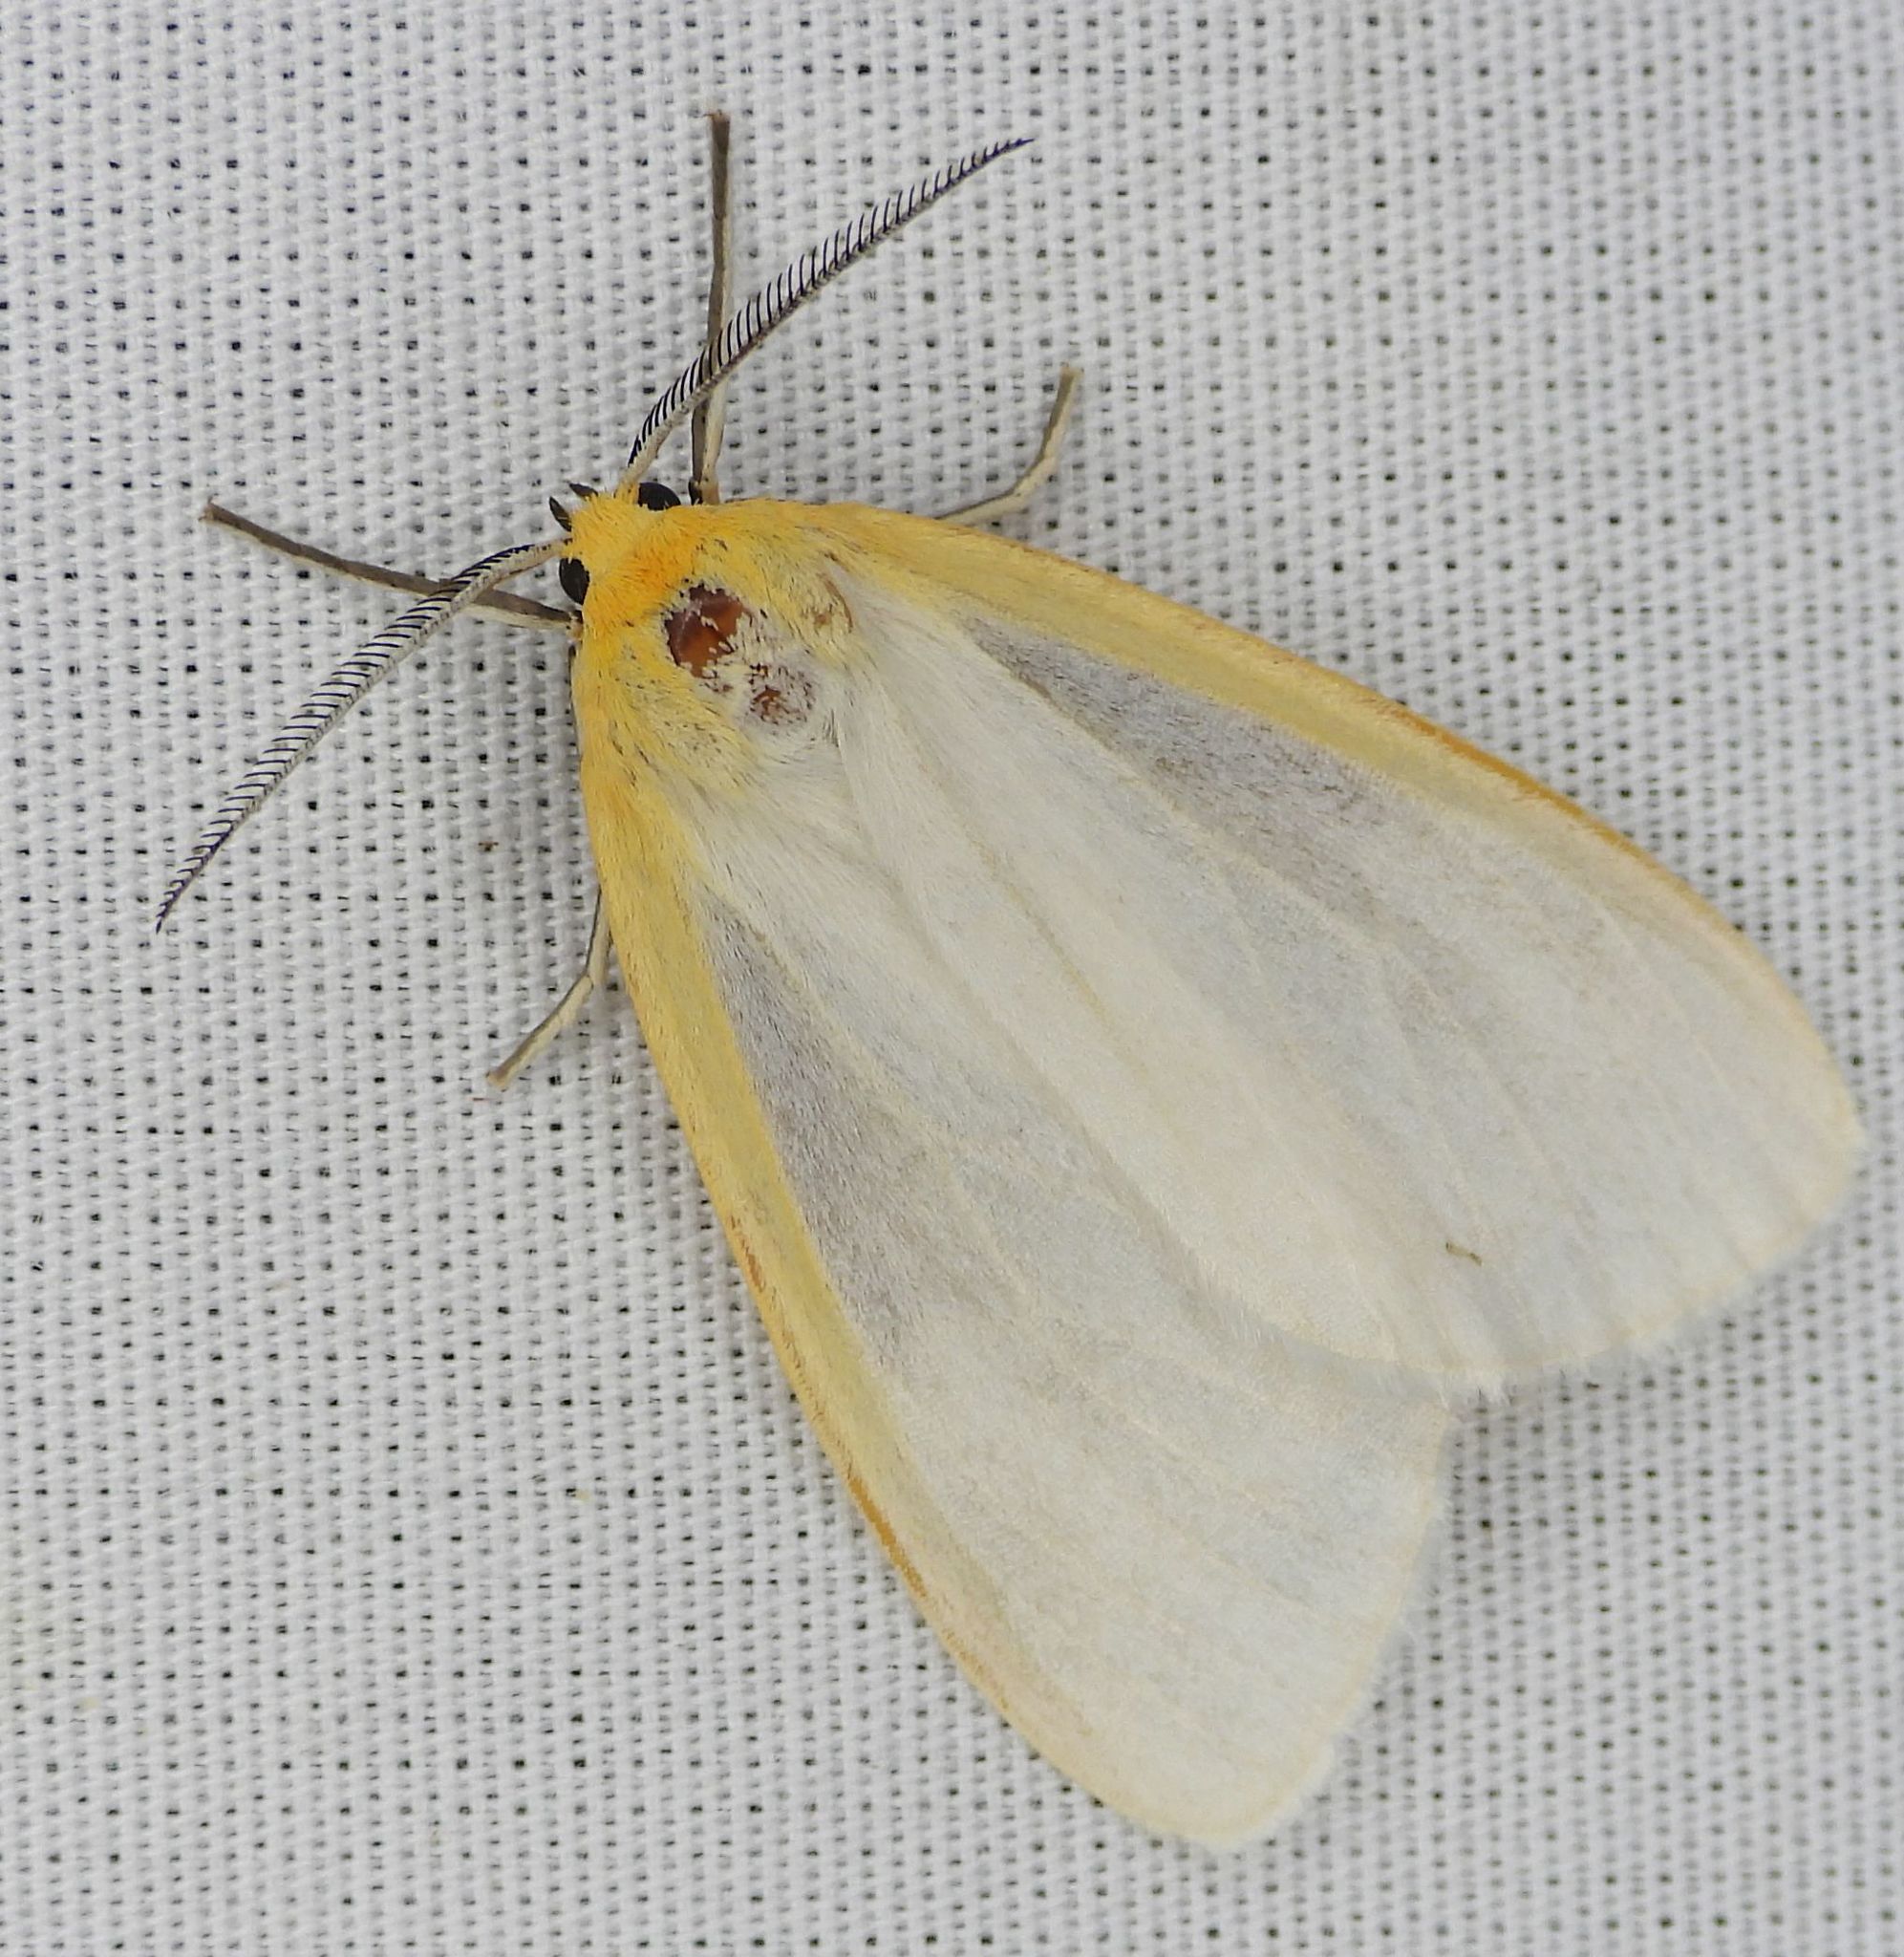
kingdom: Animalia
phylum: Arthropoda
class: Insecta
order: Lepidoptera
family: Erebidae
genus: Cycnia
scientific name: Cycnia tenera
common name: Delicate cycnia moth
